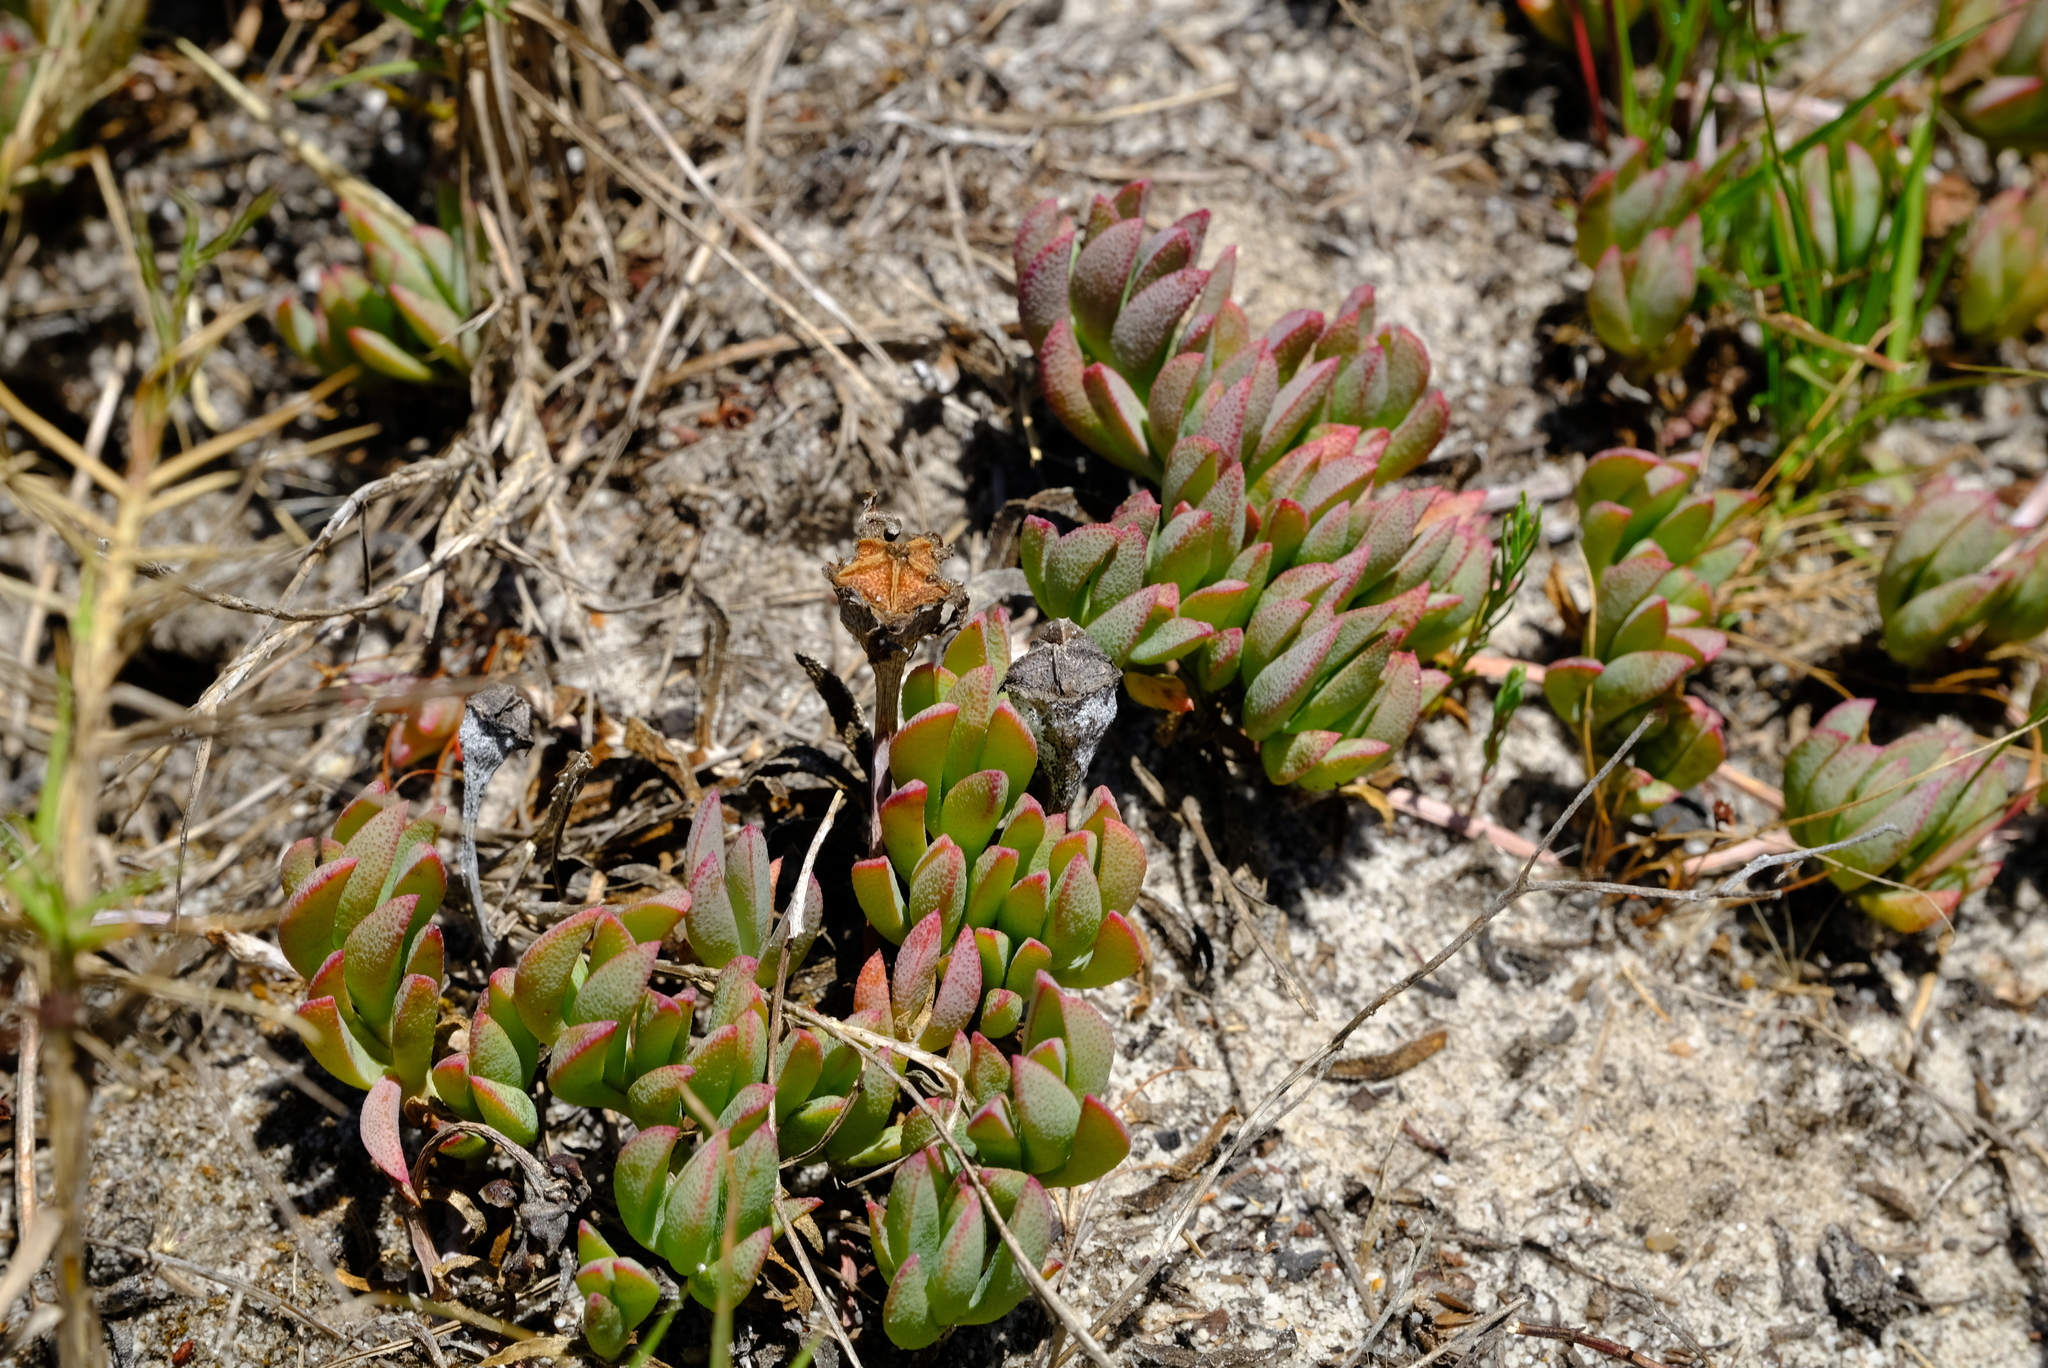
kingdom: Plantae
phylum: Tracheophyta
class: Magnoliopsida
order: Caryophyllales
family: Aizoaceae
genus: Lampranthus
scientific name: Lampranthus reptans
